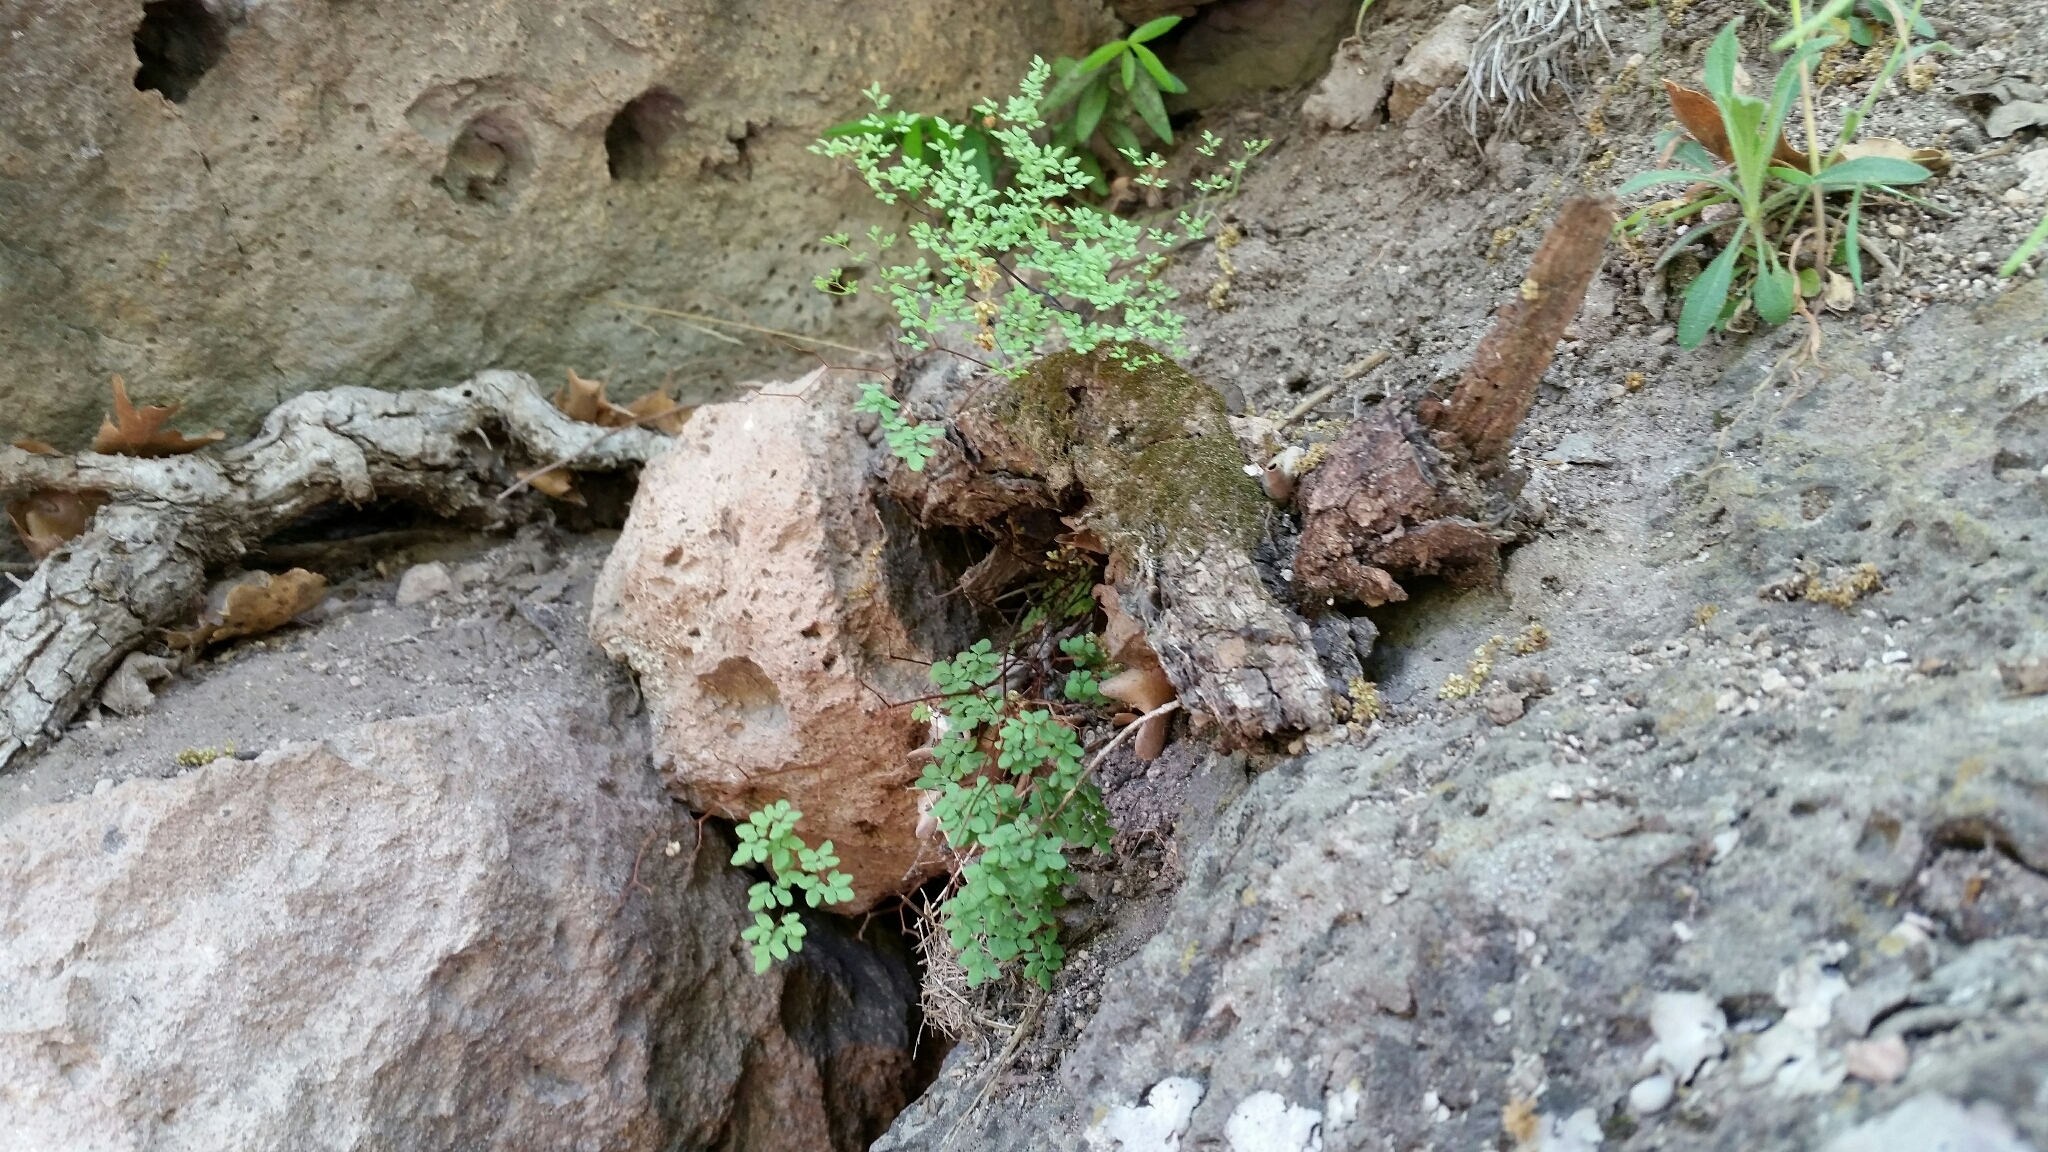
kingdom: Plantae
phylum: Tracheophyta
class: Polypodiopsida
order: Polypodiales
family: Pteridaceae
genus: Argyrochosma
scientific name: Argyrochosma fendleri
